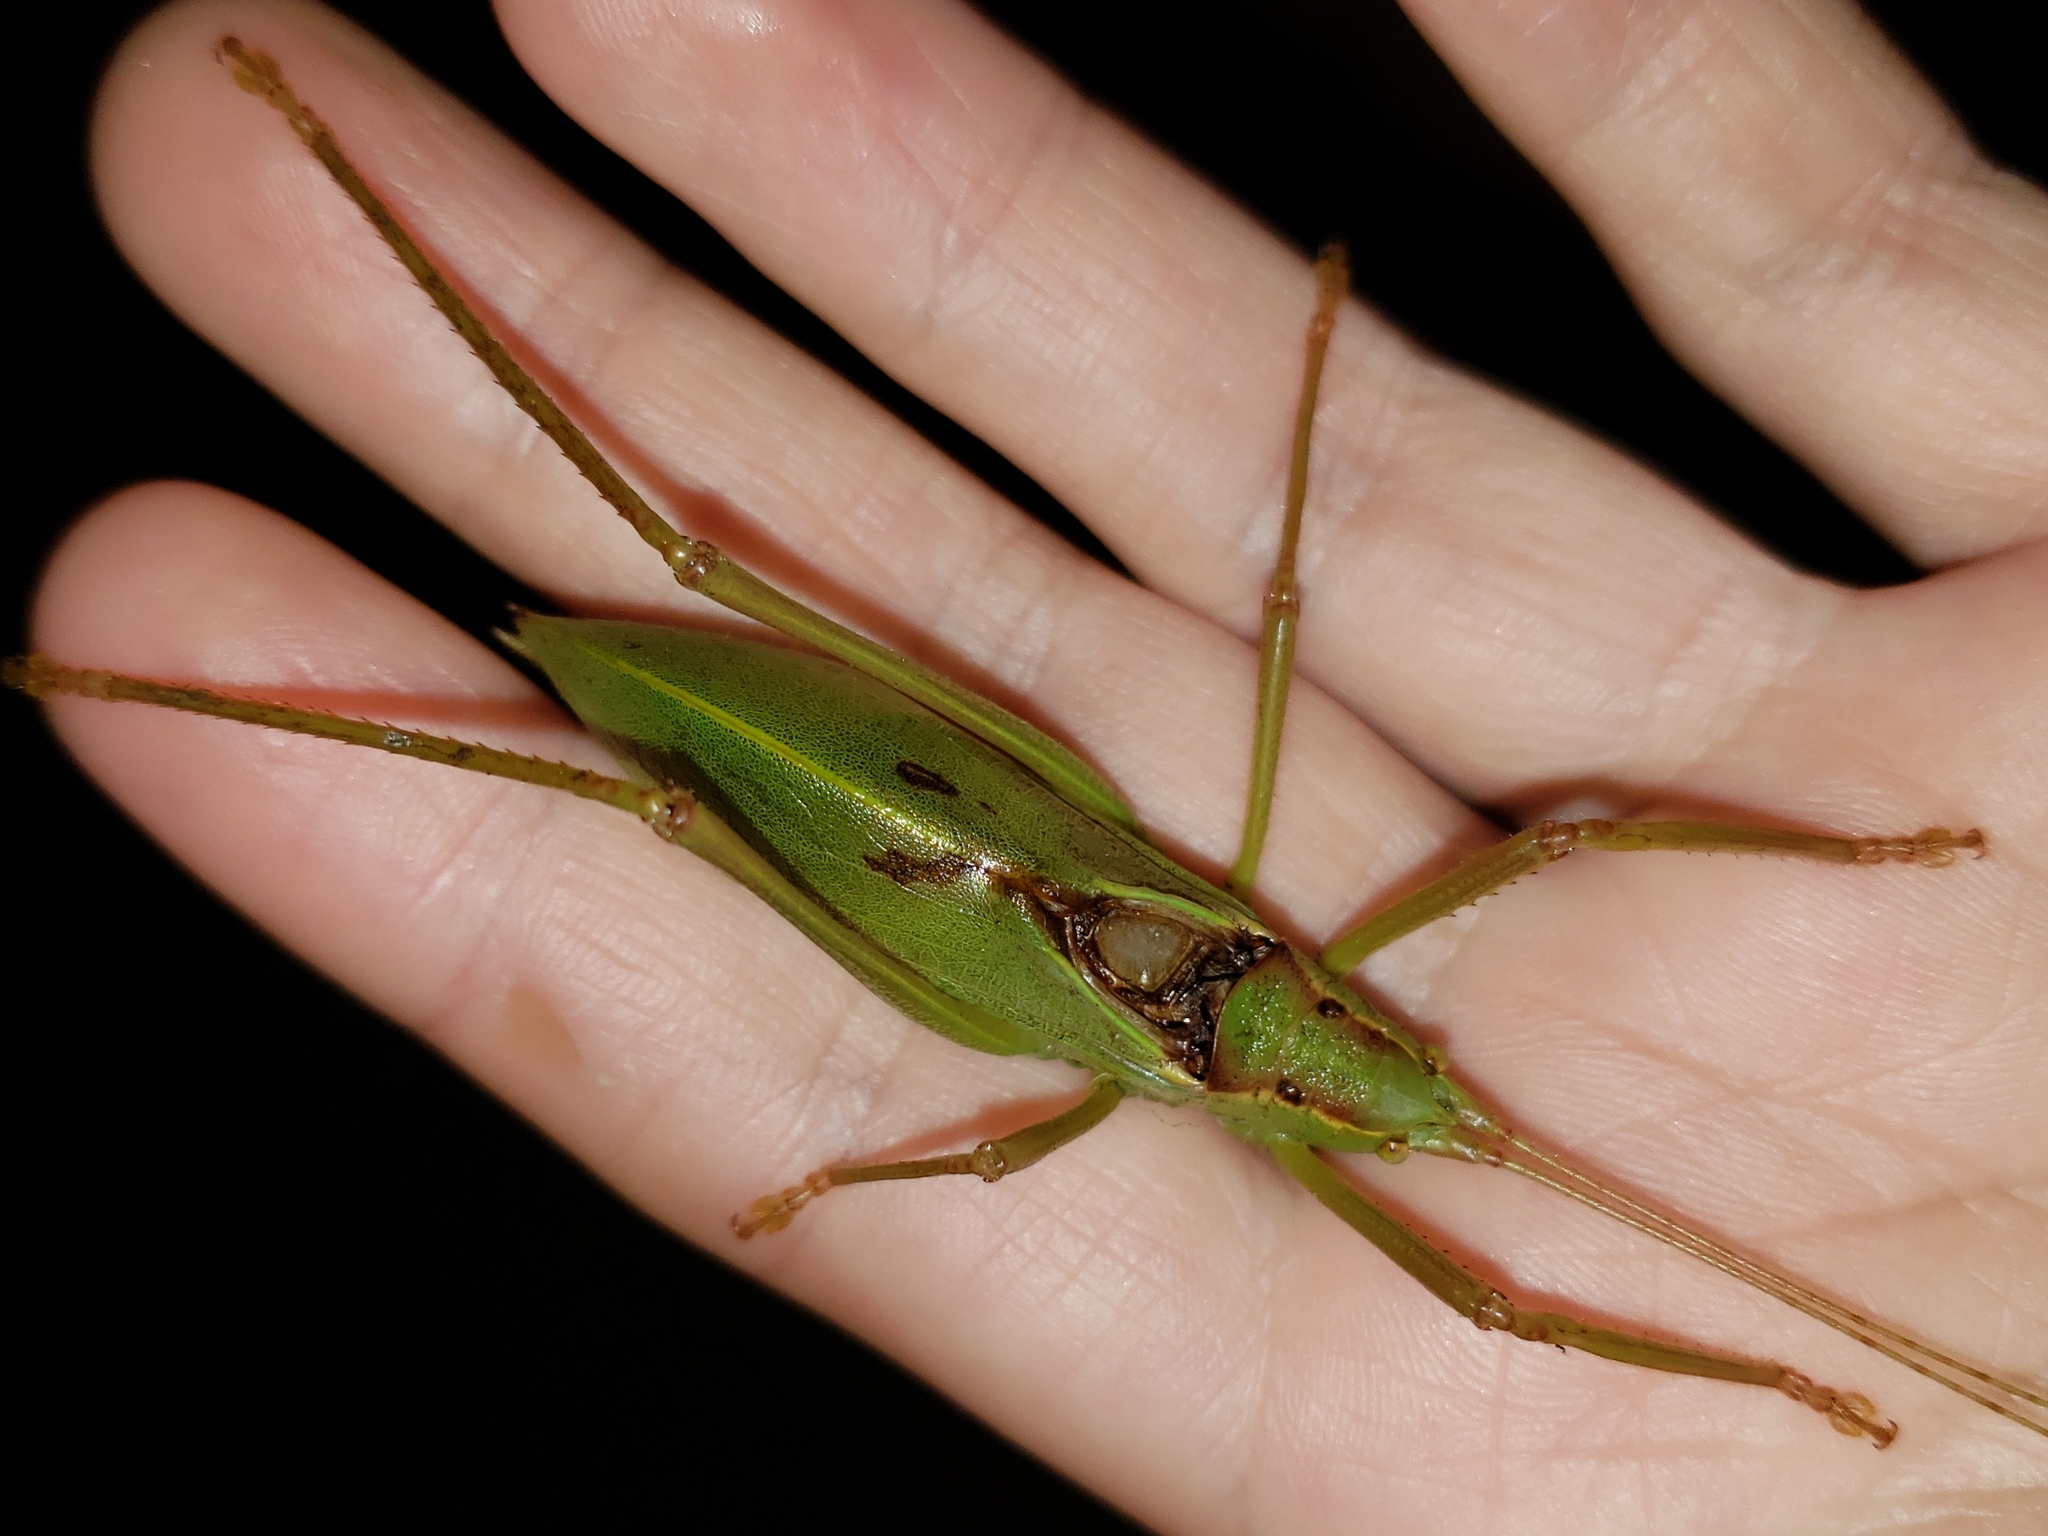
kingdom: Animalia
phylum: Arthropoda
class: Insecta
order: Orthoptera
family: Tettigoniidae
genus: Lea
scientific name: Lea floridensis
